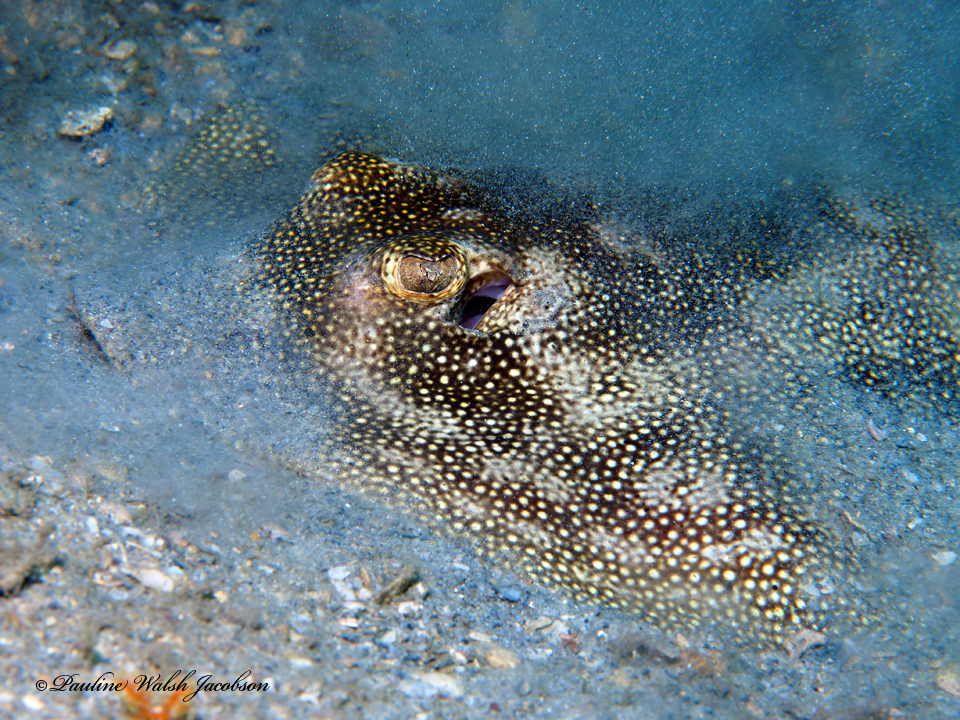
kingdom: Animalia
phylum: Chordata
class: Elasmobranchii
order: Myliobatiformes
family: Urotrygonidae
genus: Urobatis
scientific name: Urobatis jamaicensis
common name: Yellow stingray
